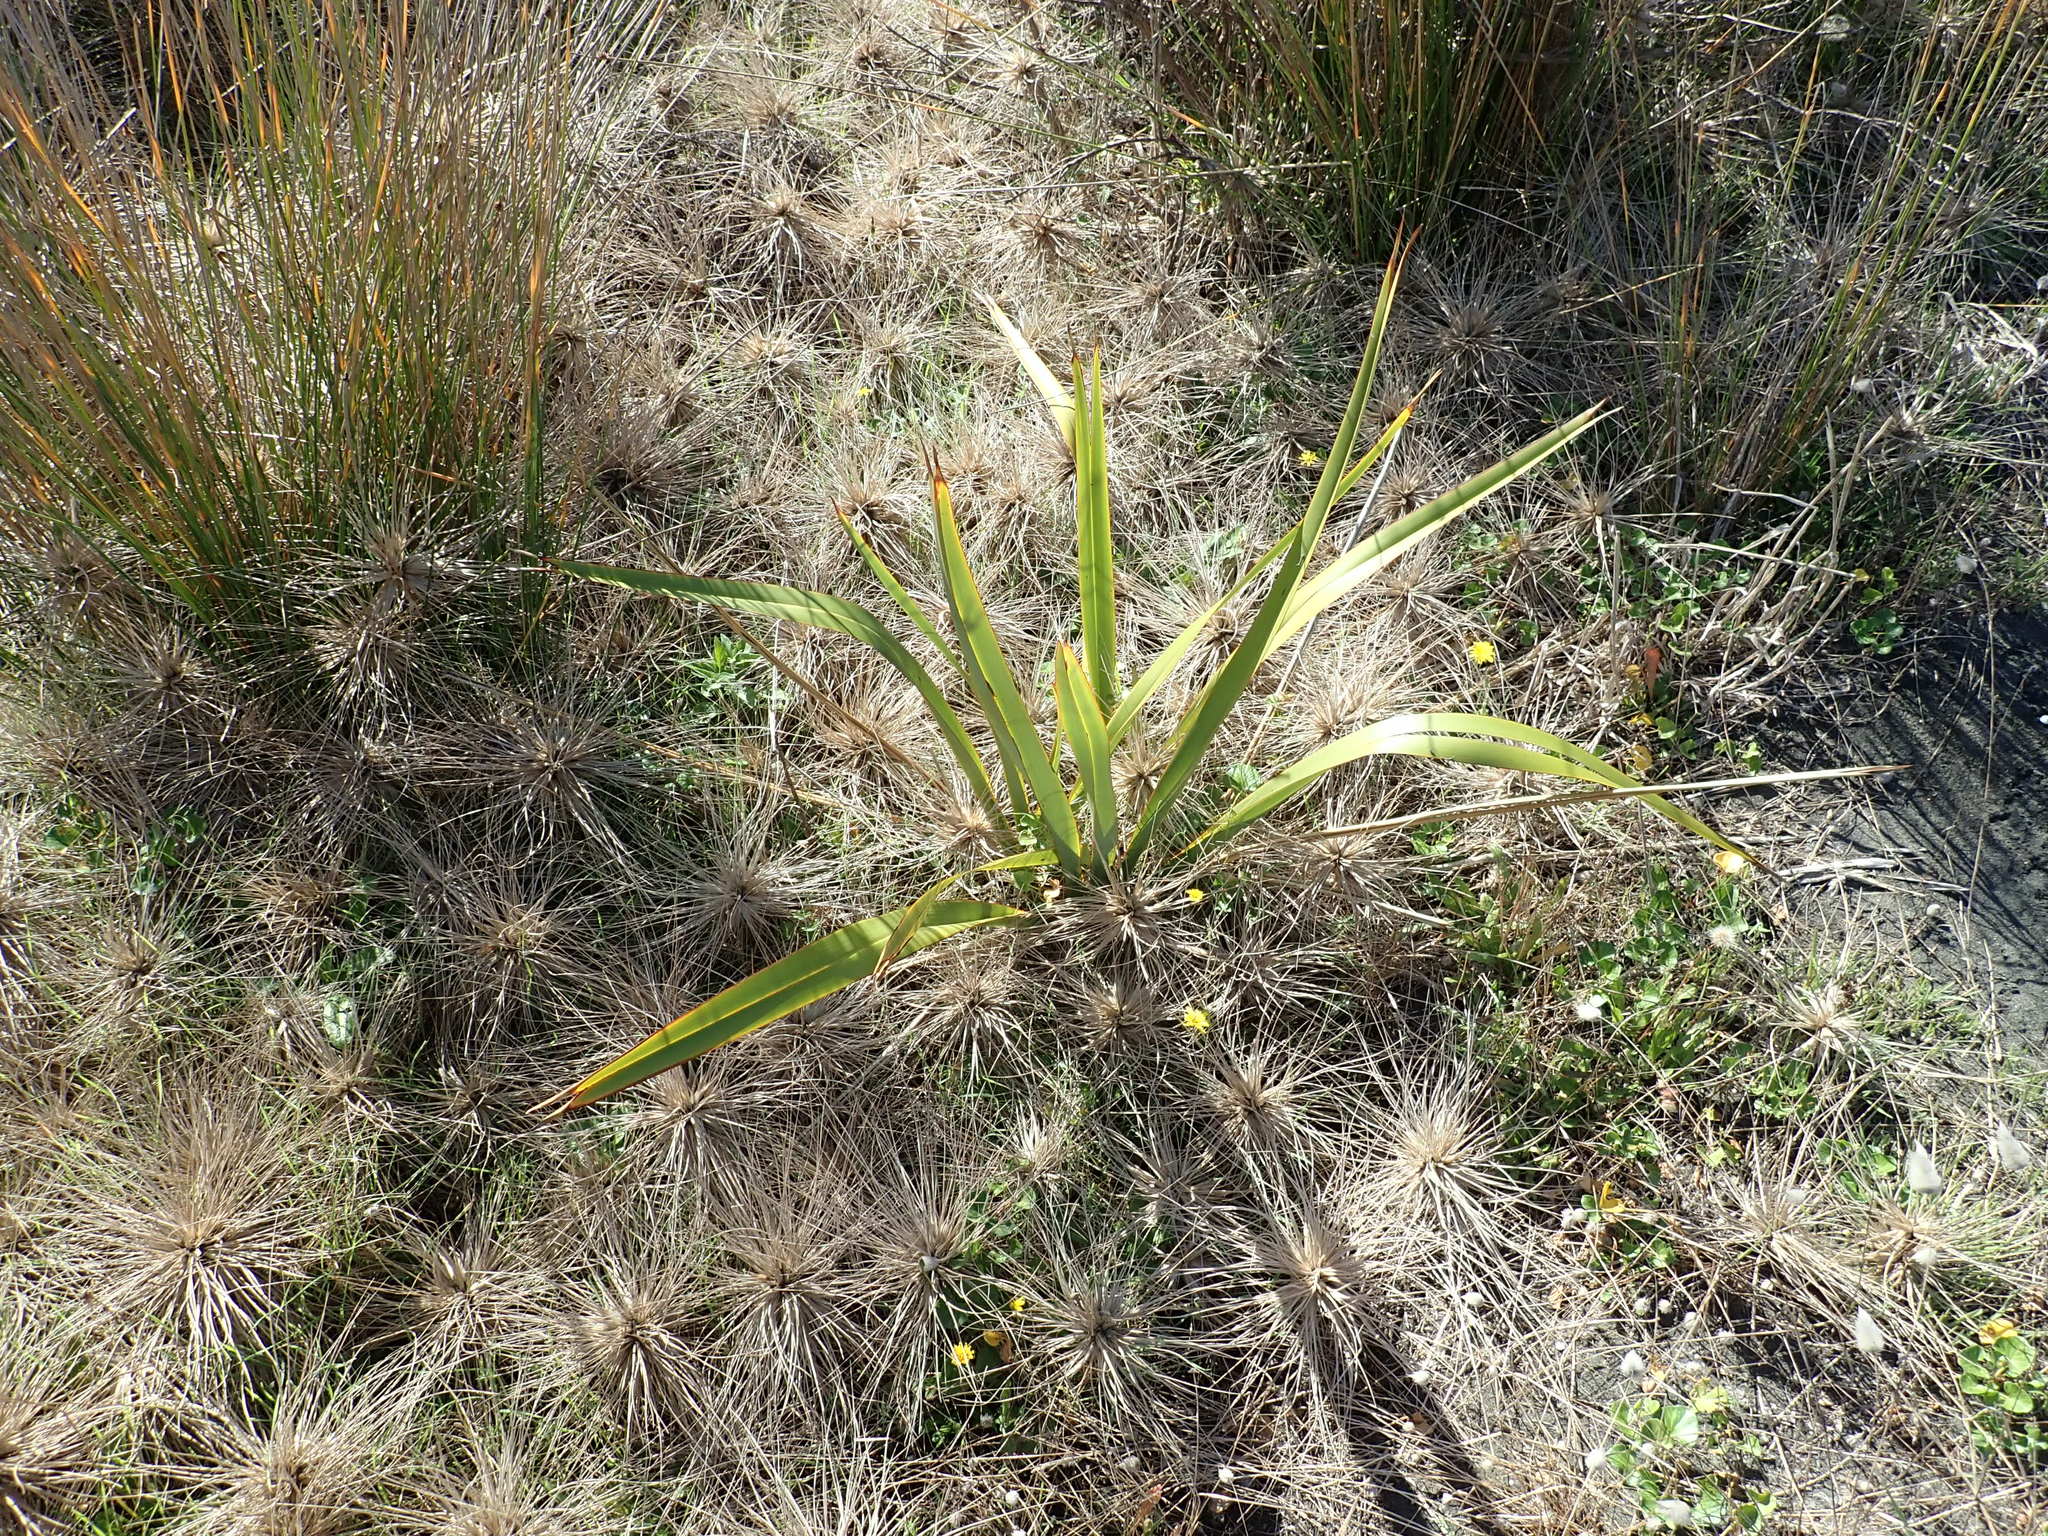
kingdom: Plantae
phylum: Tracheophyta
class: Liliopsida
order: Asparagales
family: Asphodelaceae
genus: Phormium
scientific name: Phormium tenax
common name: New zealand flax
